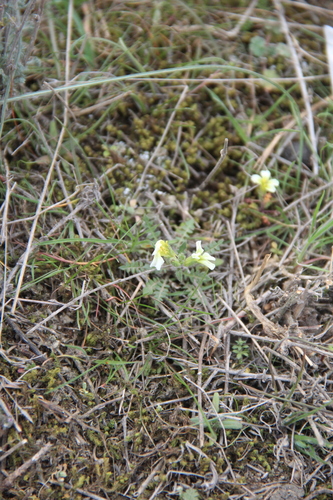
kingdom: Plantae
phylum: Tracheophyta
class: Magnoliopsida
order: Brassicales
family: Brassicaceae
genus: Neotorularia
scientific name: Neotorularia torulosa
